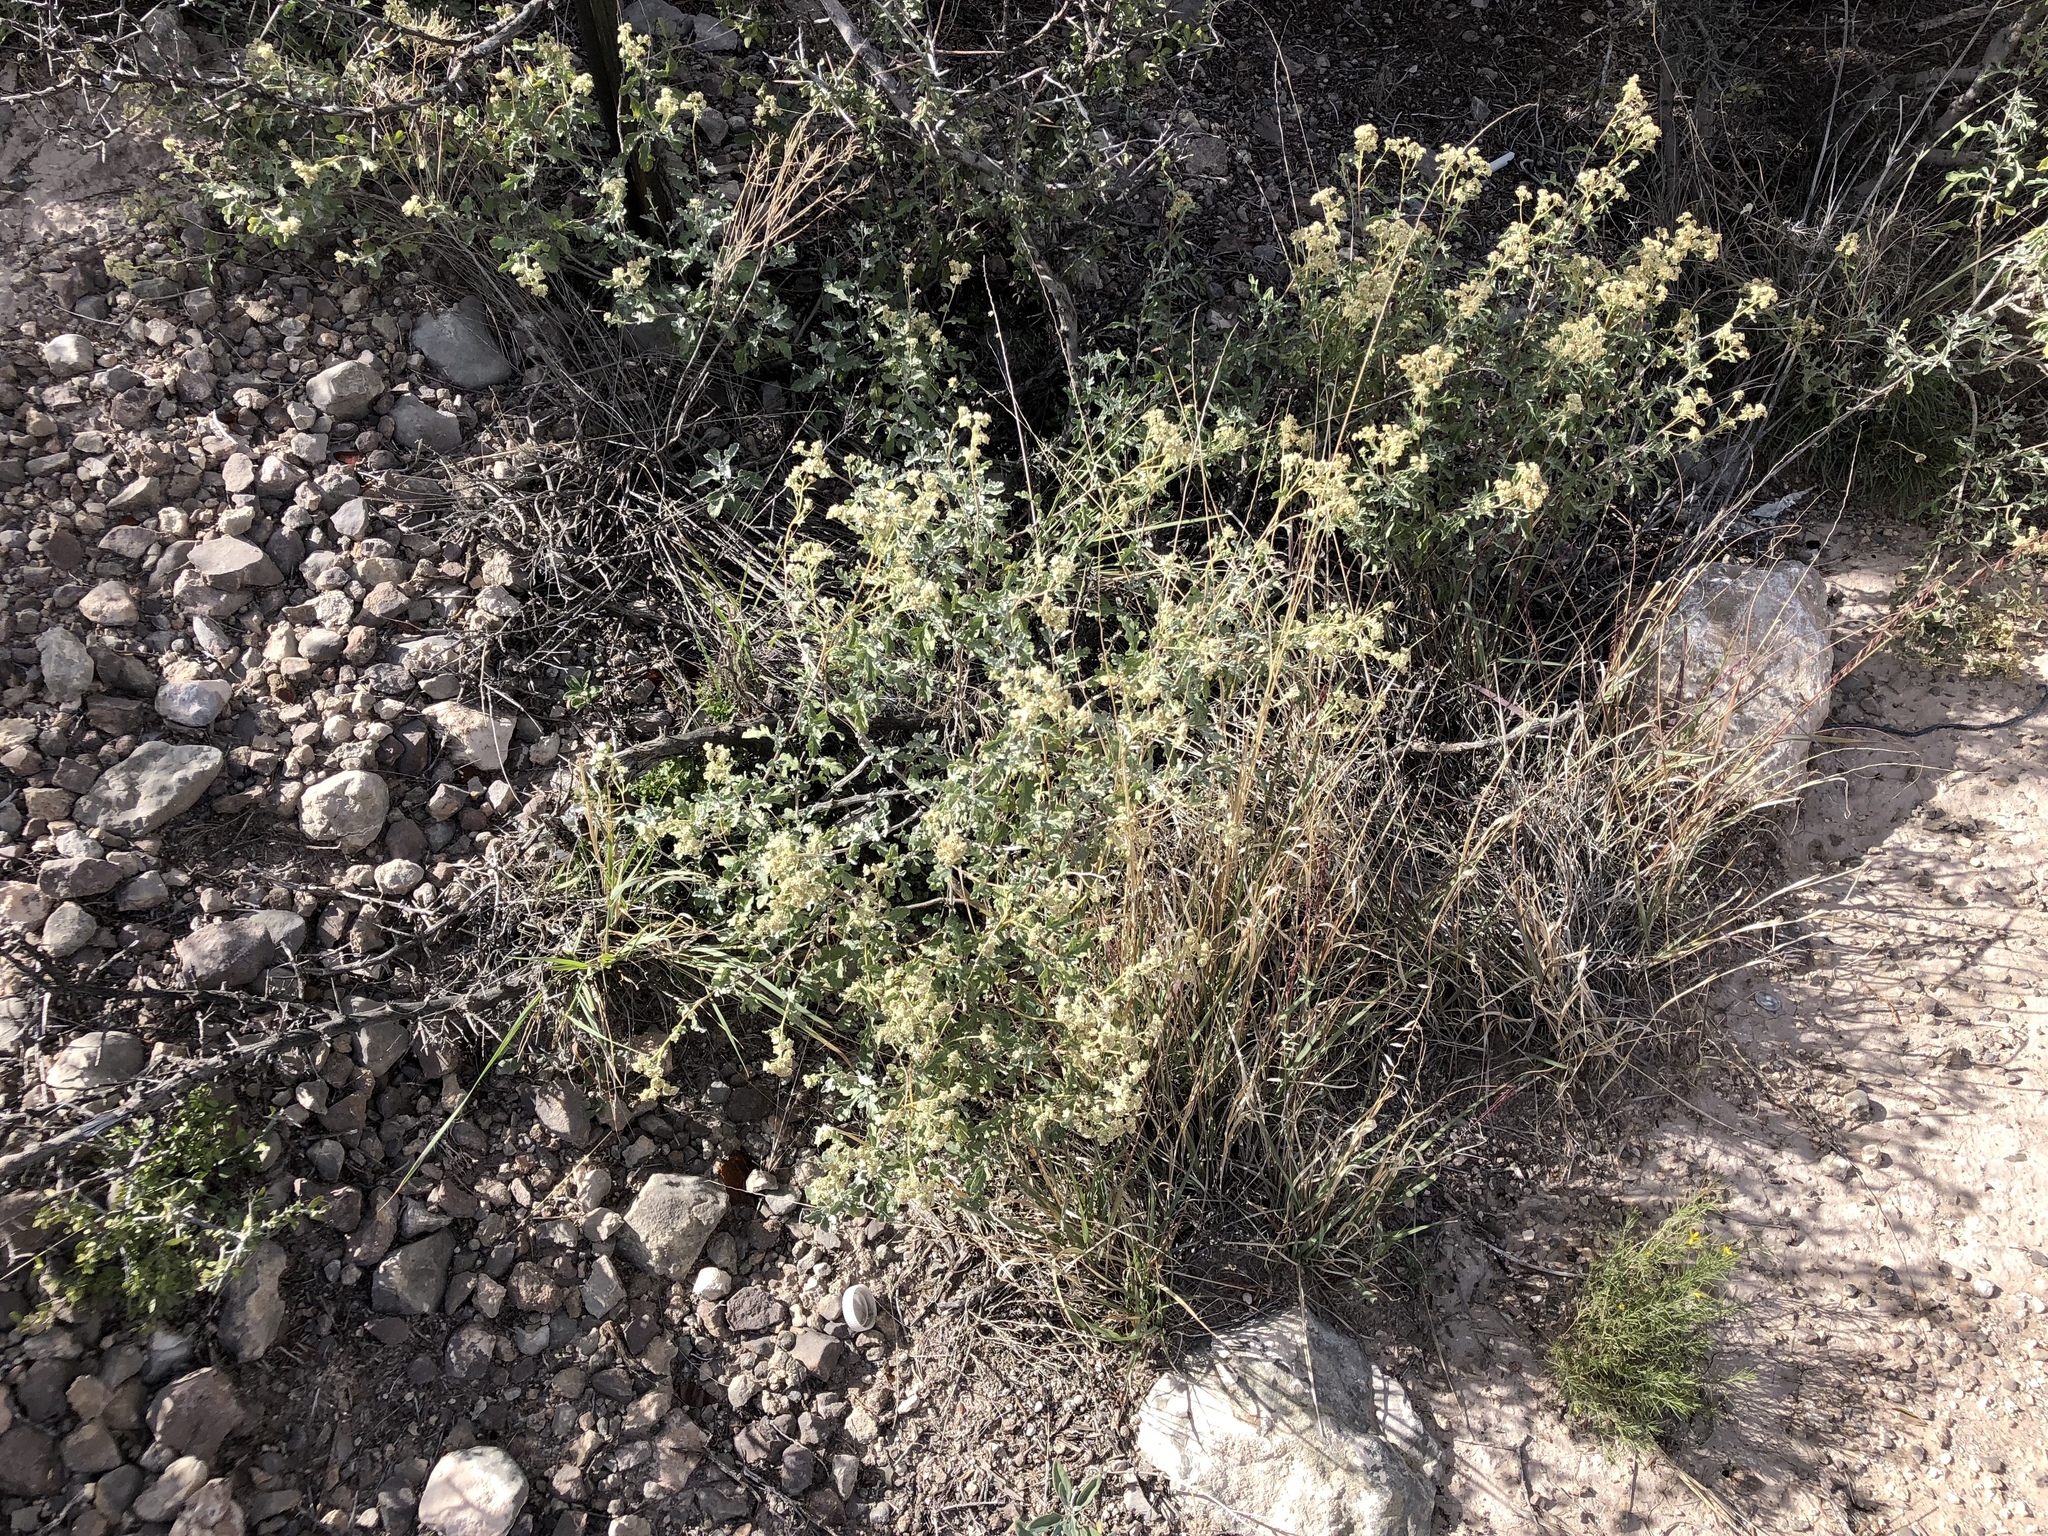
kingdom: Plantae
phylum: Tracheophyta
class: Magnoliopsida
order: Asterales
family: Asteraceae
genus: Parthenium
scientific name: Parthenium incanum
